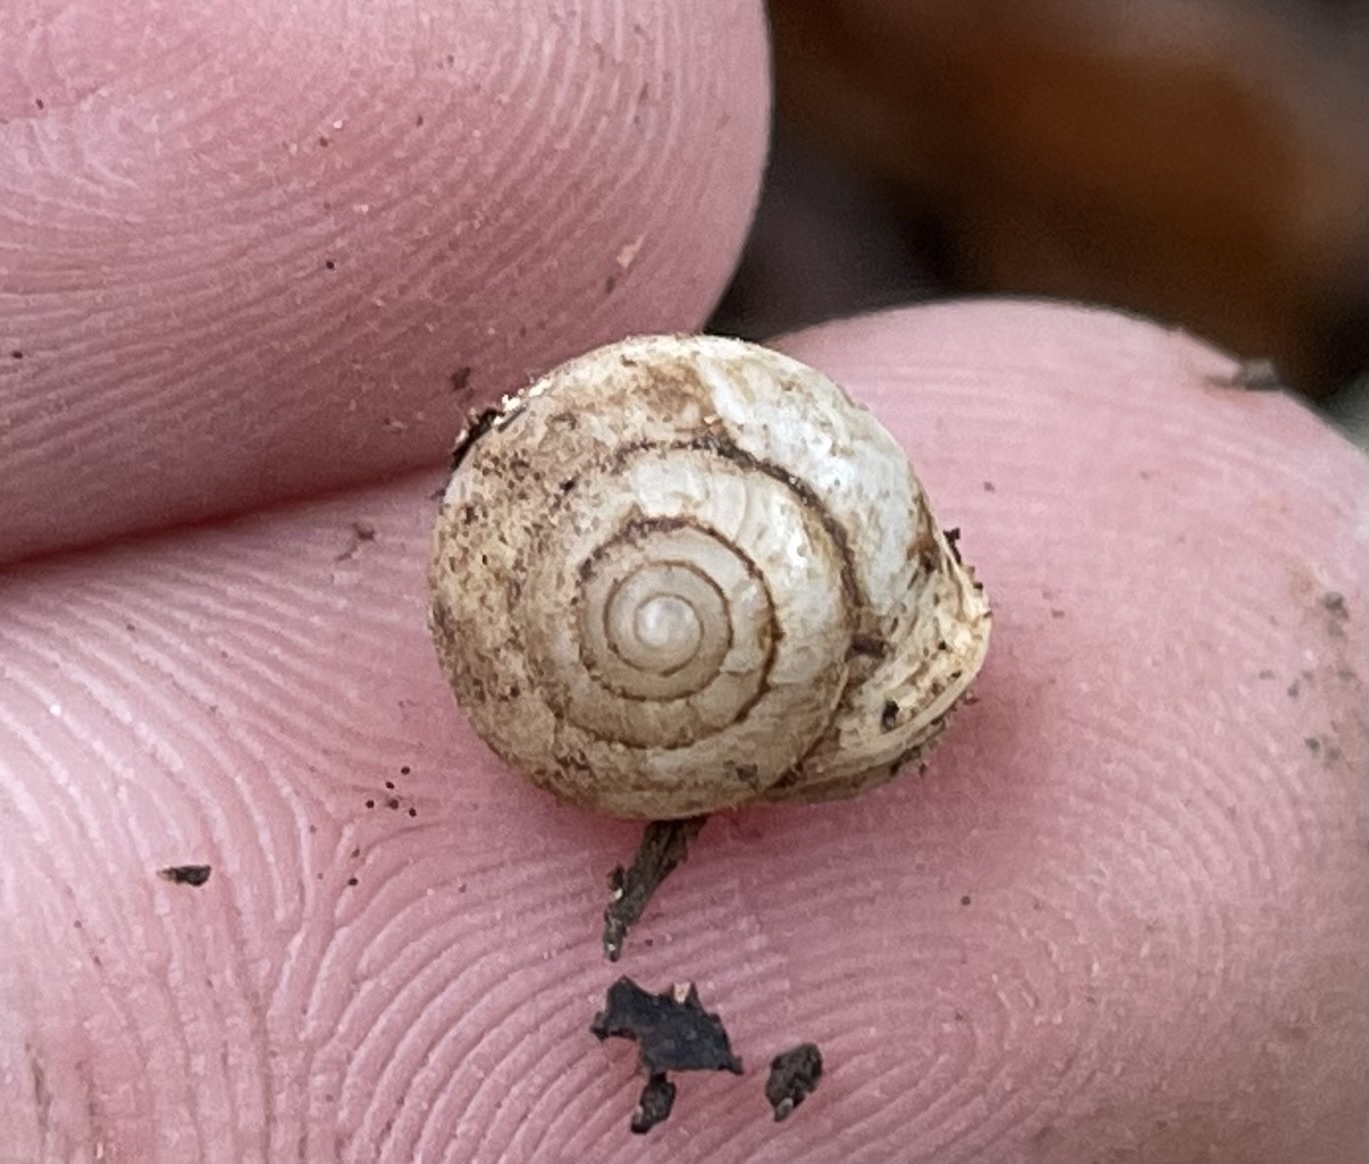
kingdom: Animalia
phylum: Mollusca
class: Gastropoda
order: Cycloneritida
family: Helicinidae
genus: Helicina
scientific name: Helicina orbiculata
